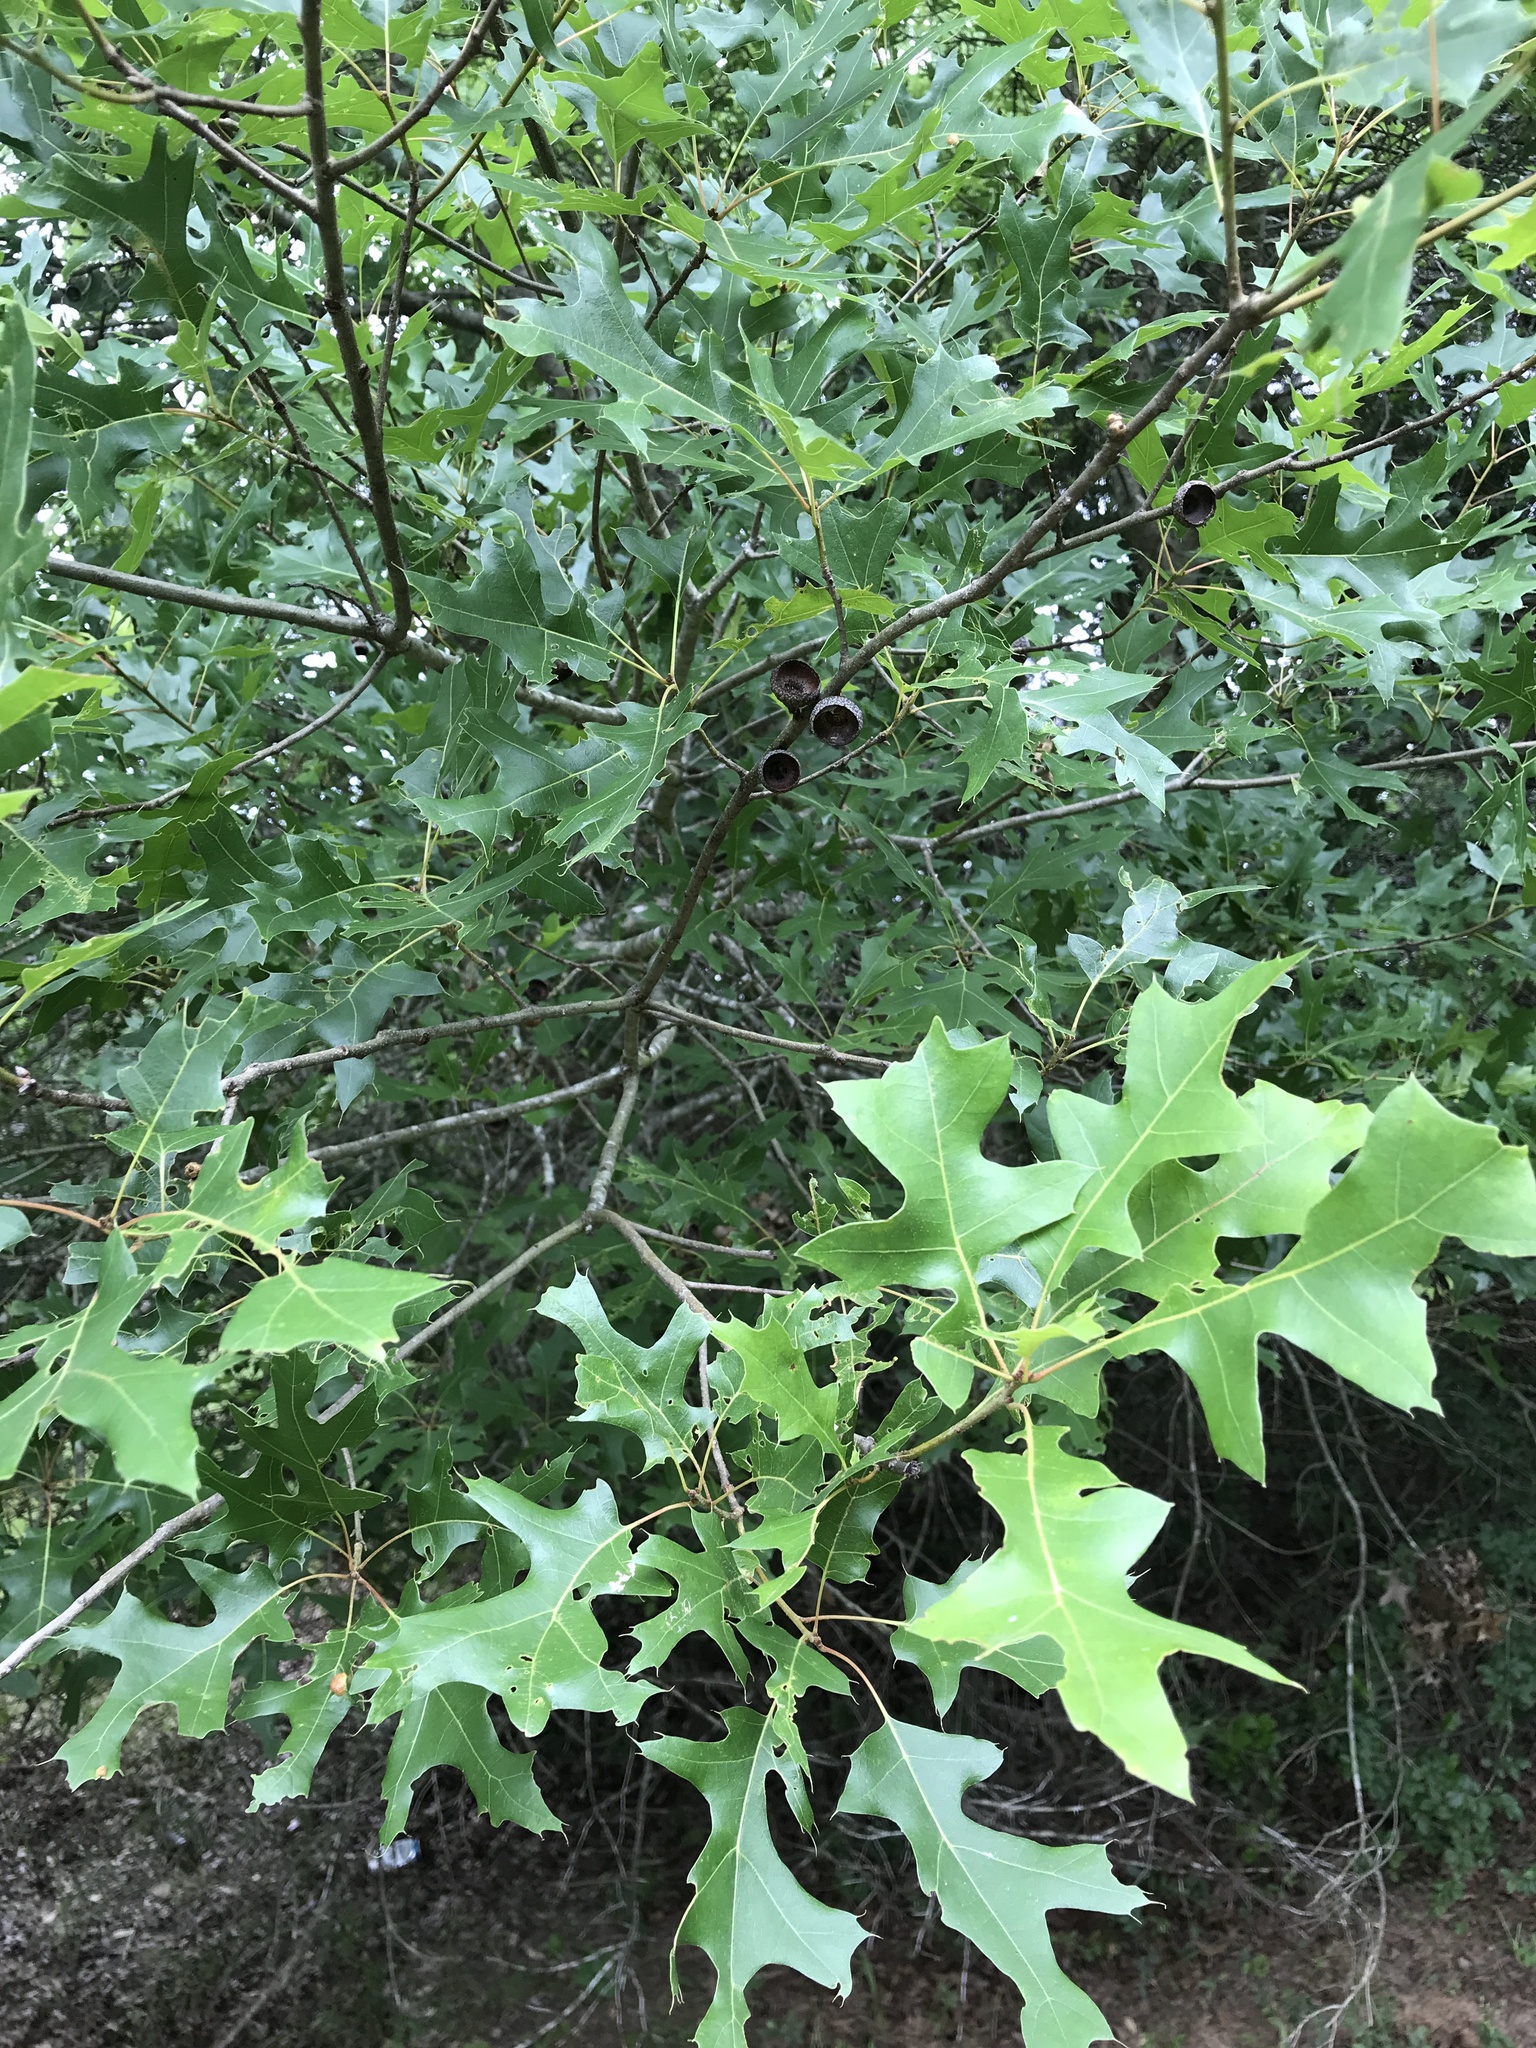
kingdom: Plantae
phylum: Tracheophyta
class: Magnoliopsida
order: Fagales
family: Fagaceae
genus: Quercus
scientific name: Quercus buckleyi
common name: Buckley oak
